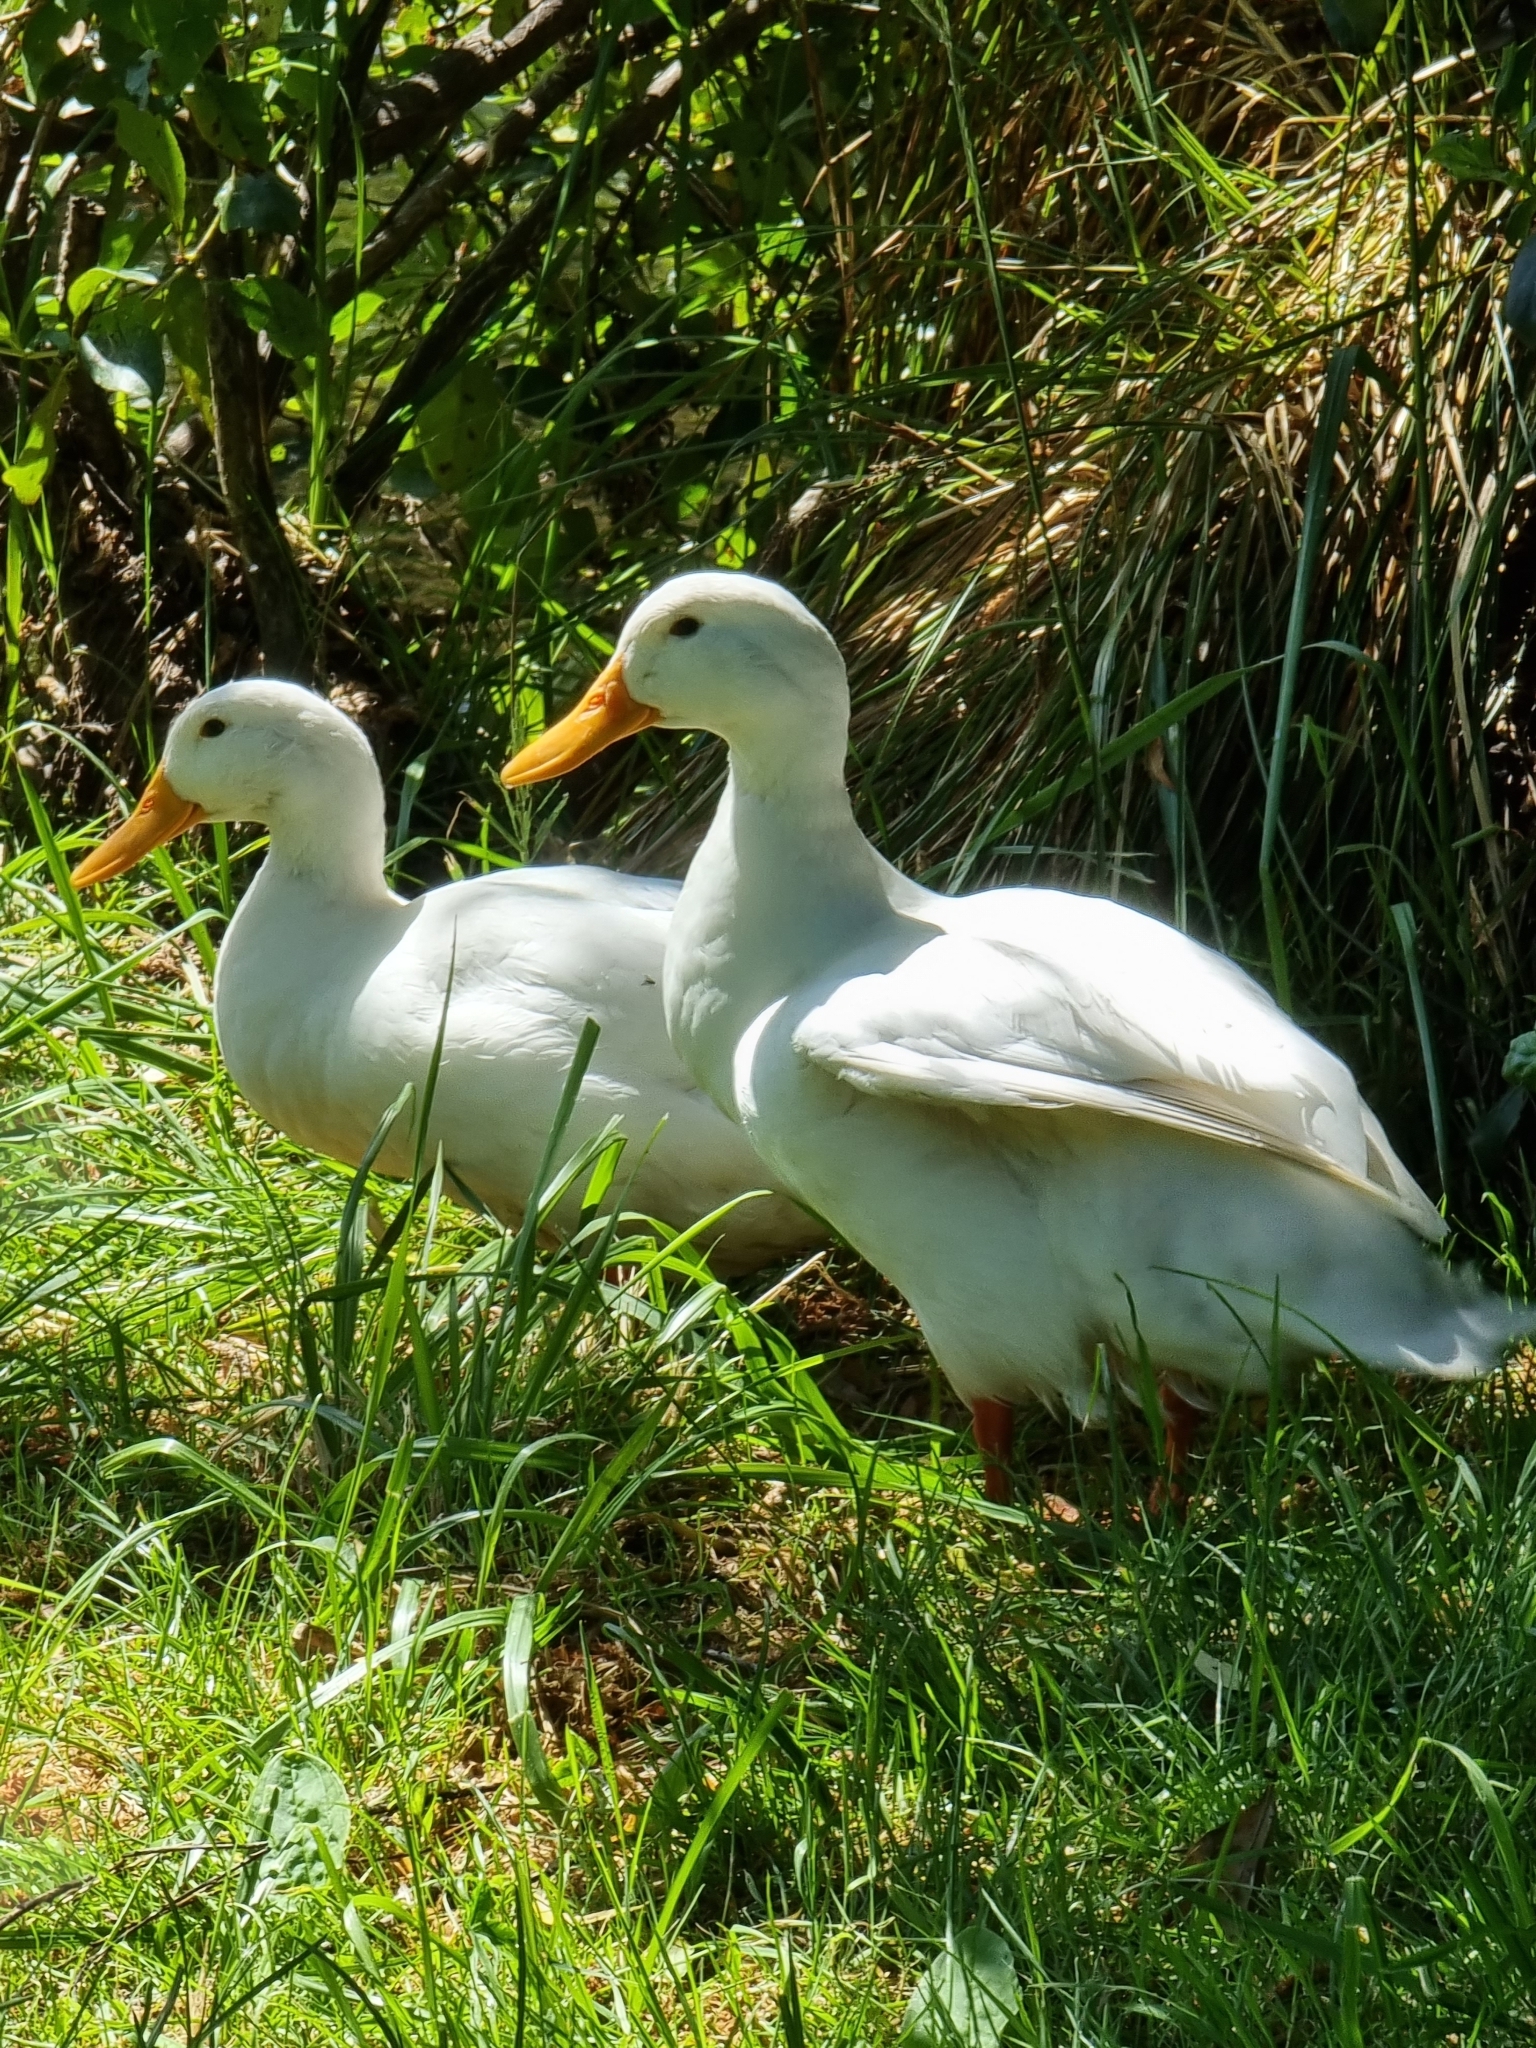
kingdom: Animalia
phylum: Chordata
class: Aves
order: Anseriformes
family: Anatidae
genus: Anas
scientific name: Anas platyrhynchos
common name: Mallard
